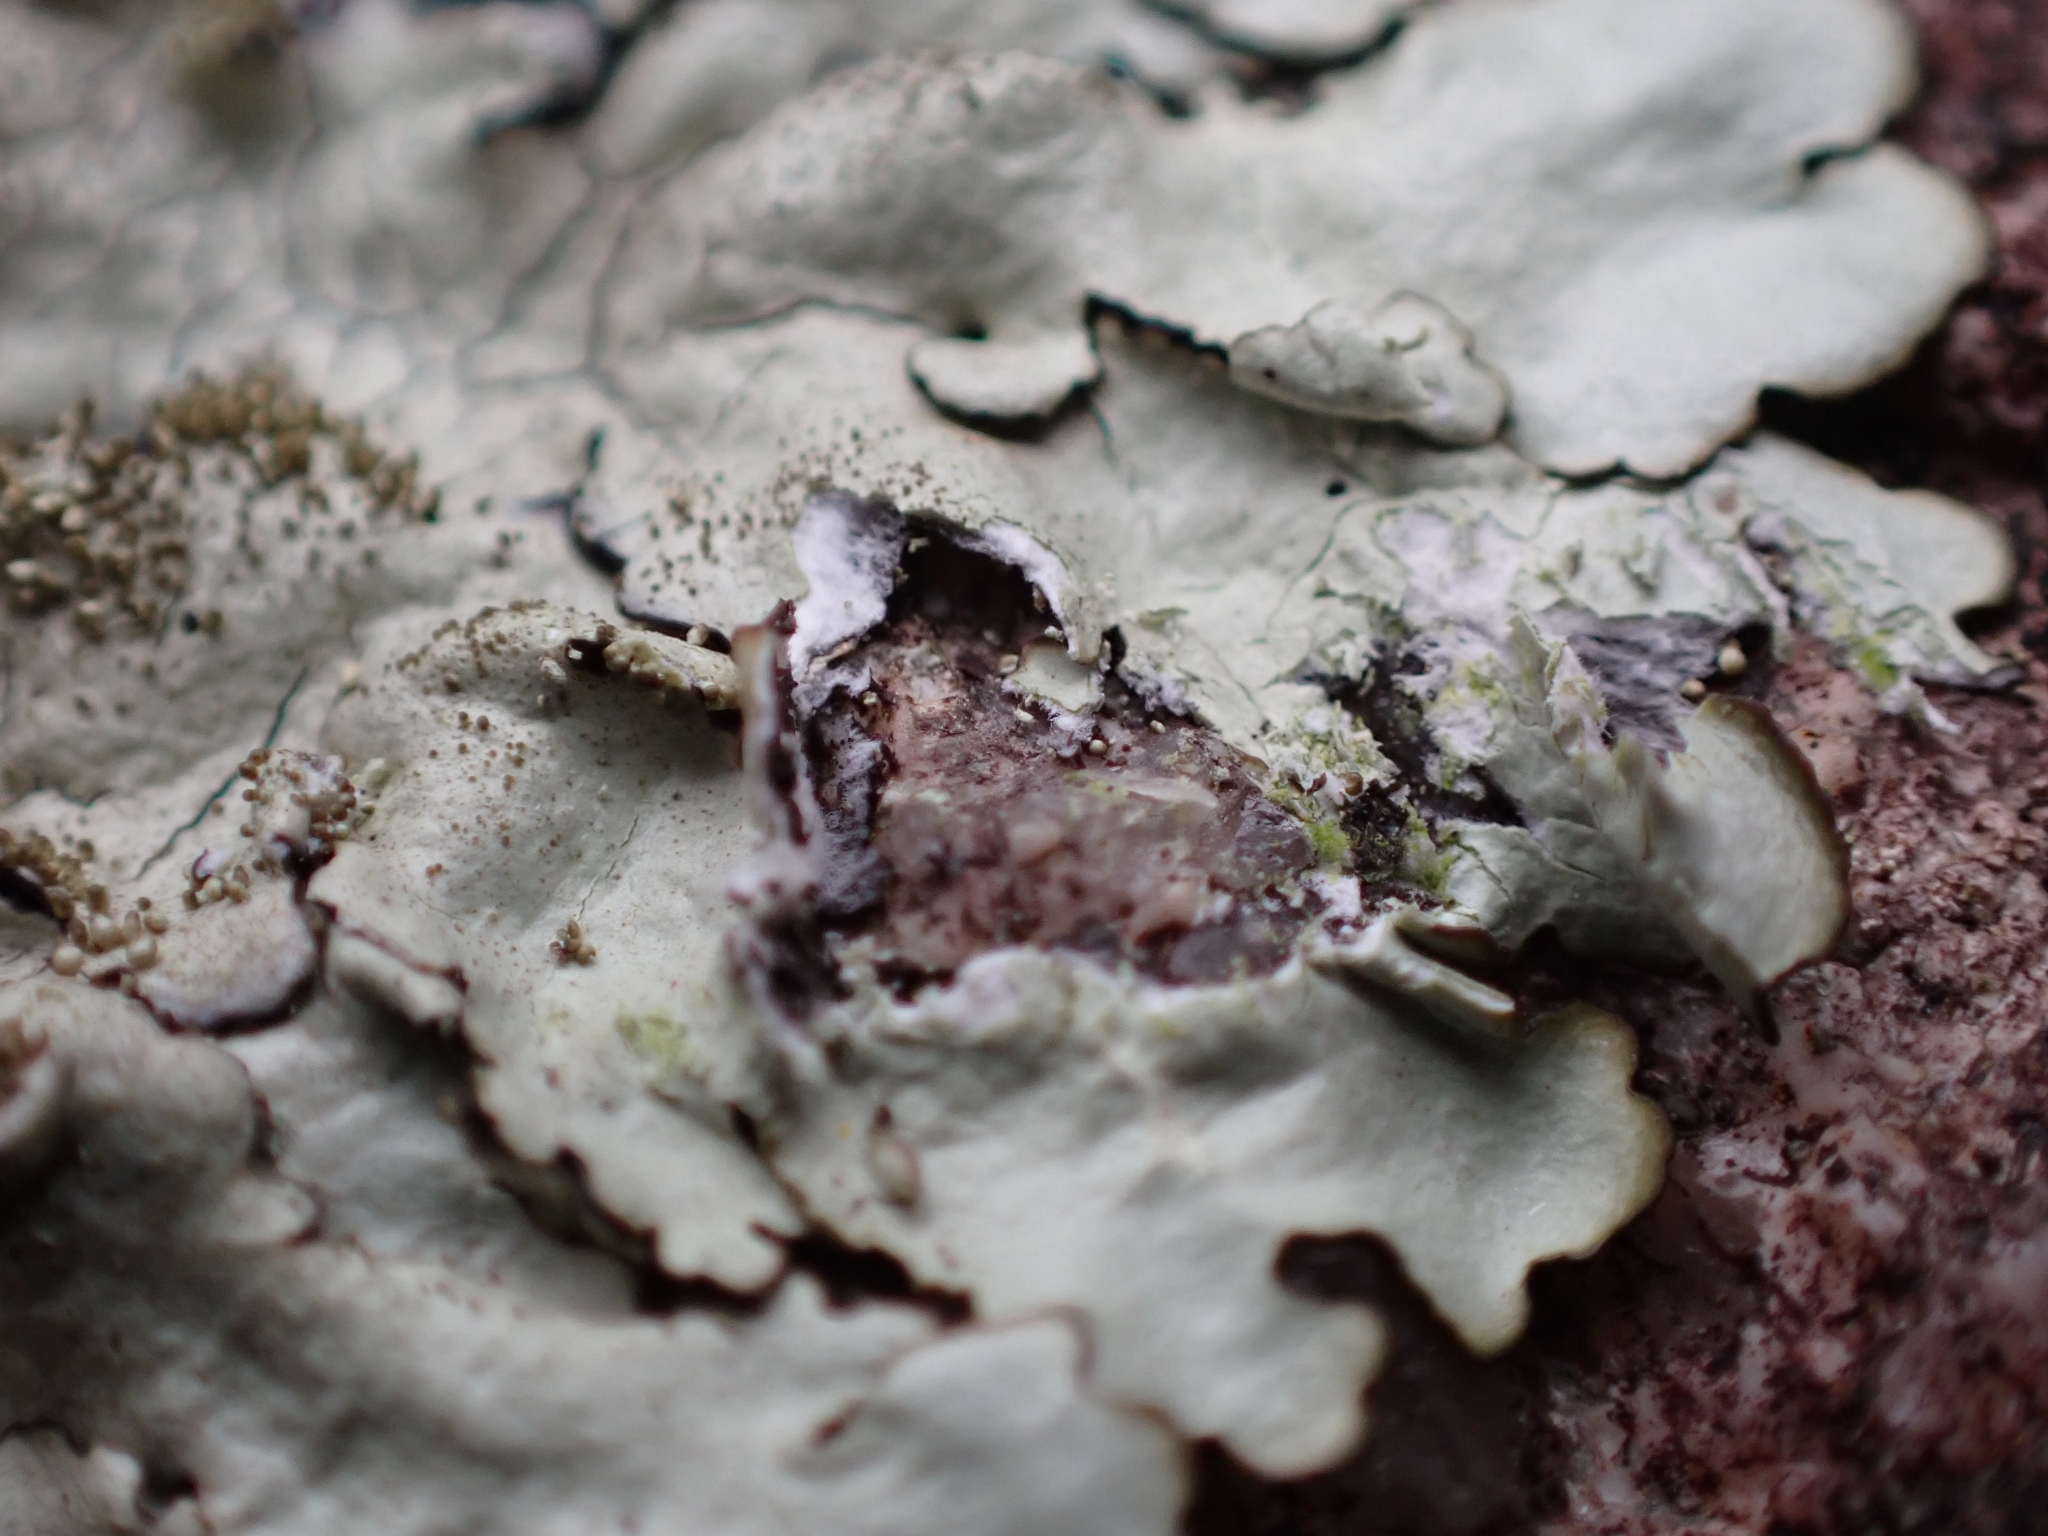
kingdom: Fungi
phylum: Ascomycota
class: Lecanoromycetes
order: Lecanorales
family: Parmeliaceae
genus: Xanthoparmelia
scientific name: Xanthoparmelia conspersa
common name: Peppered rock shield
